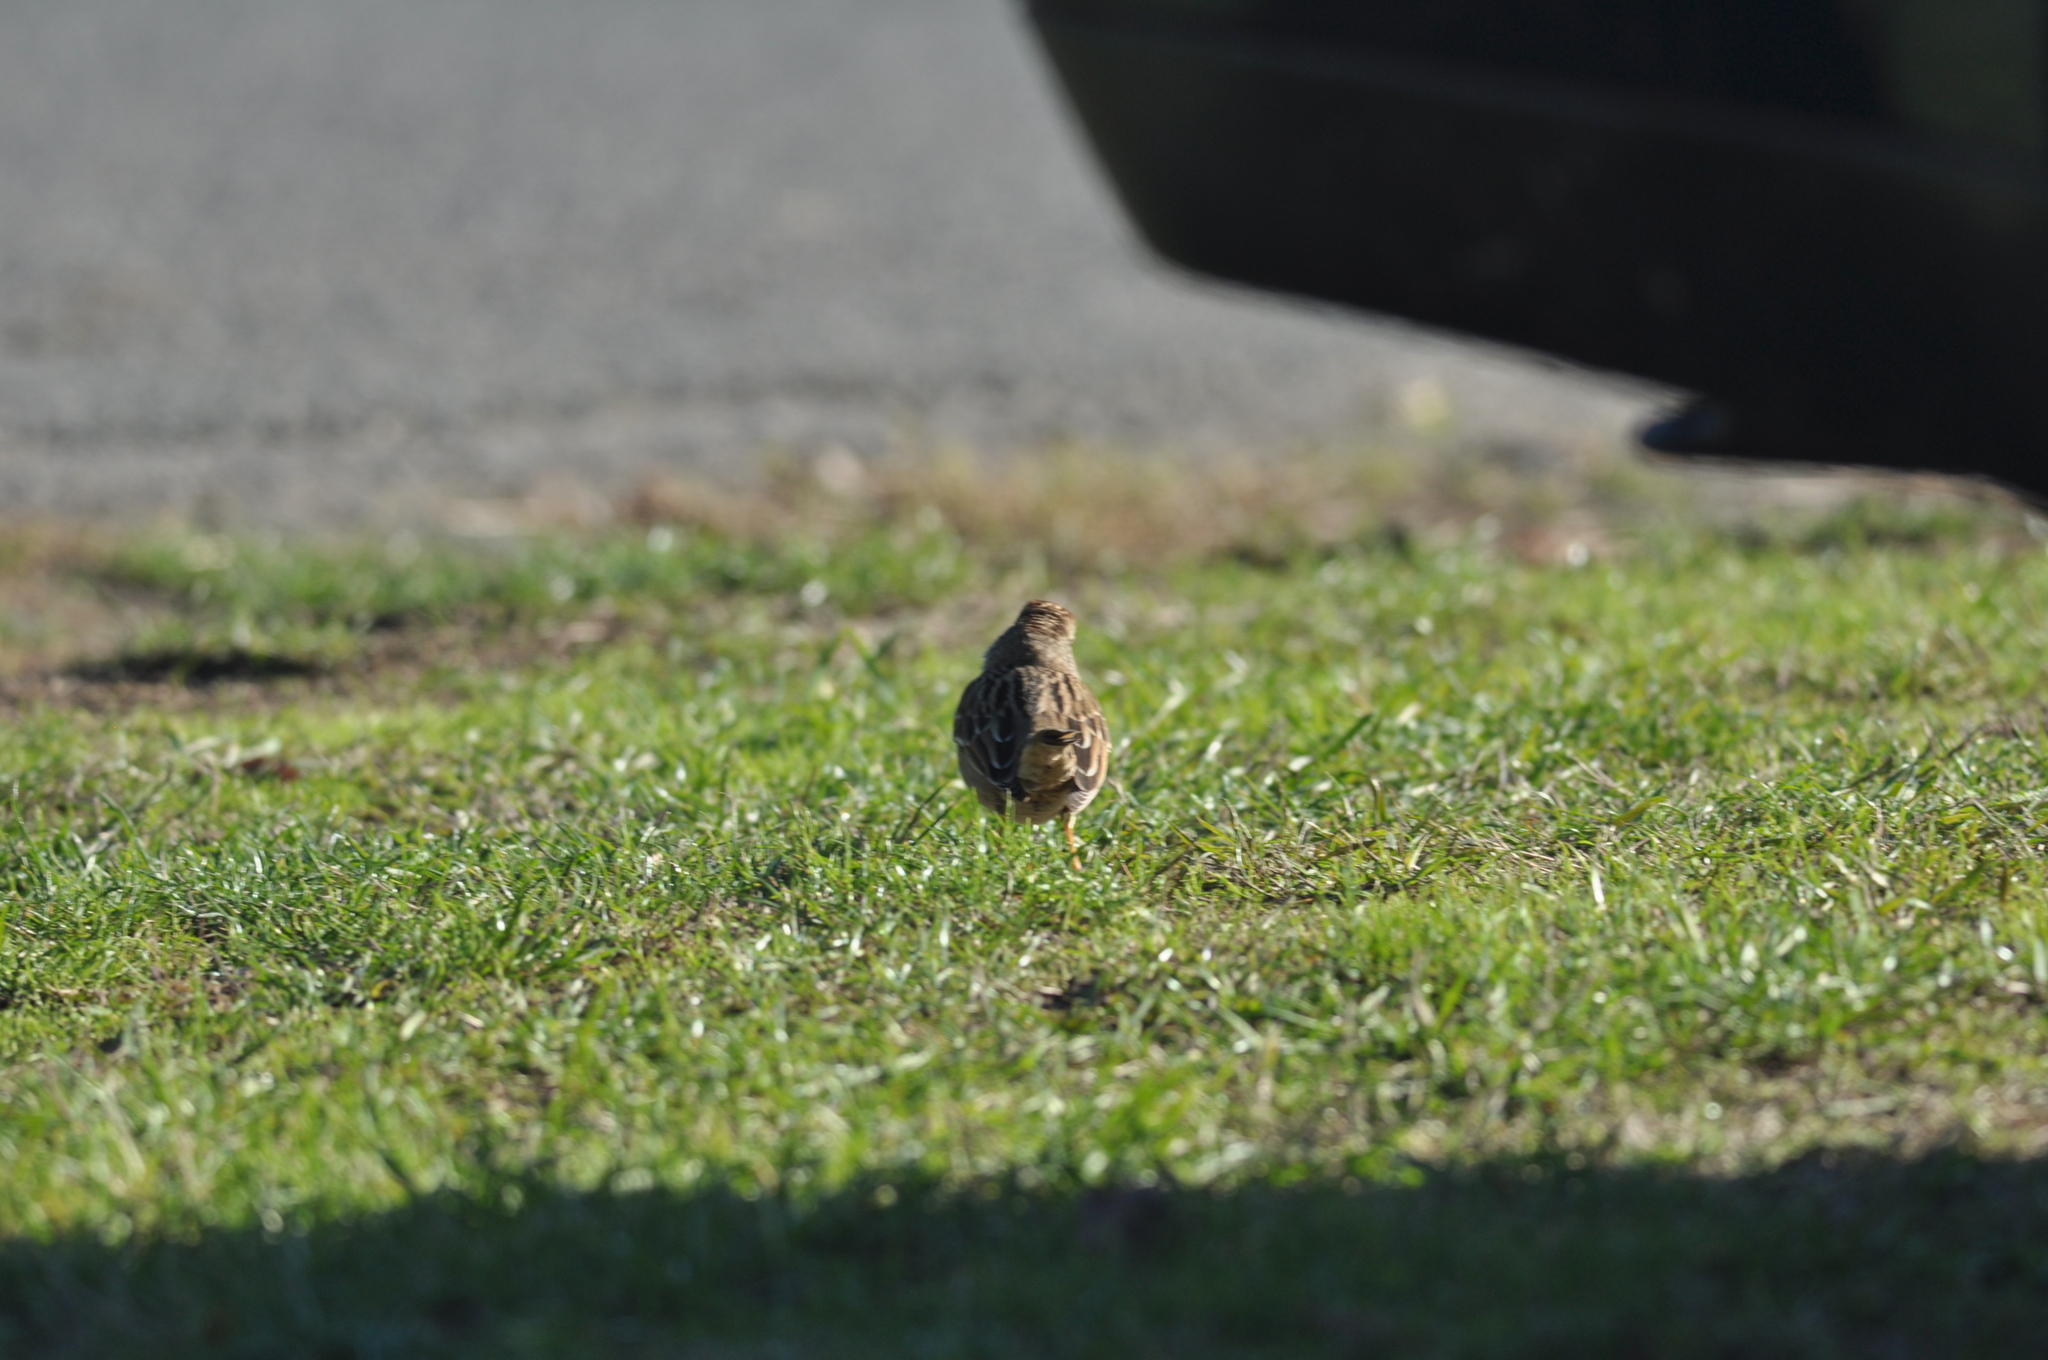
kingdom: Animalia
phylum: Chordata
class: Aves
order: Passeriformes
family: Passerellidae
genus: Zonotrichia
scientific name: Zonotrichia leucophrys
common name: White-crowned sparrow
